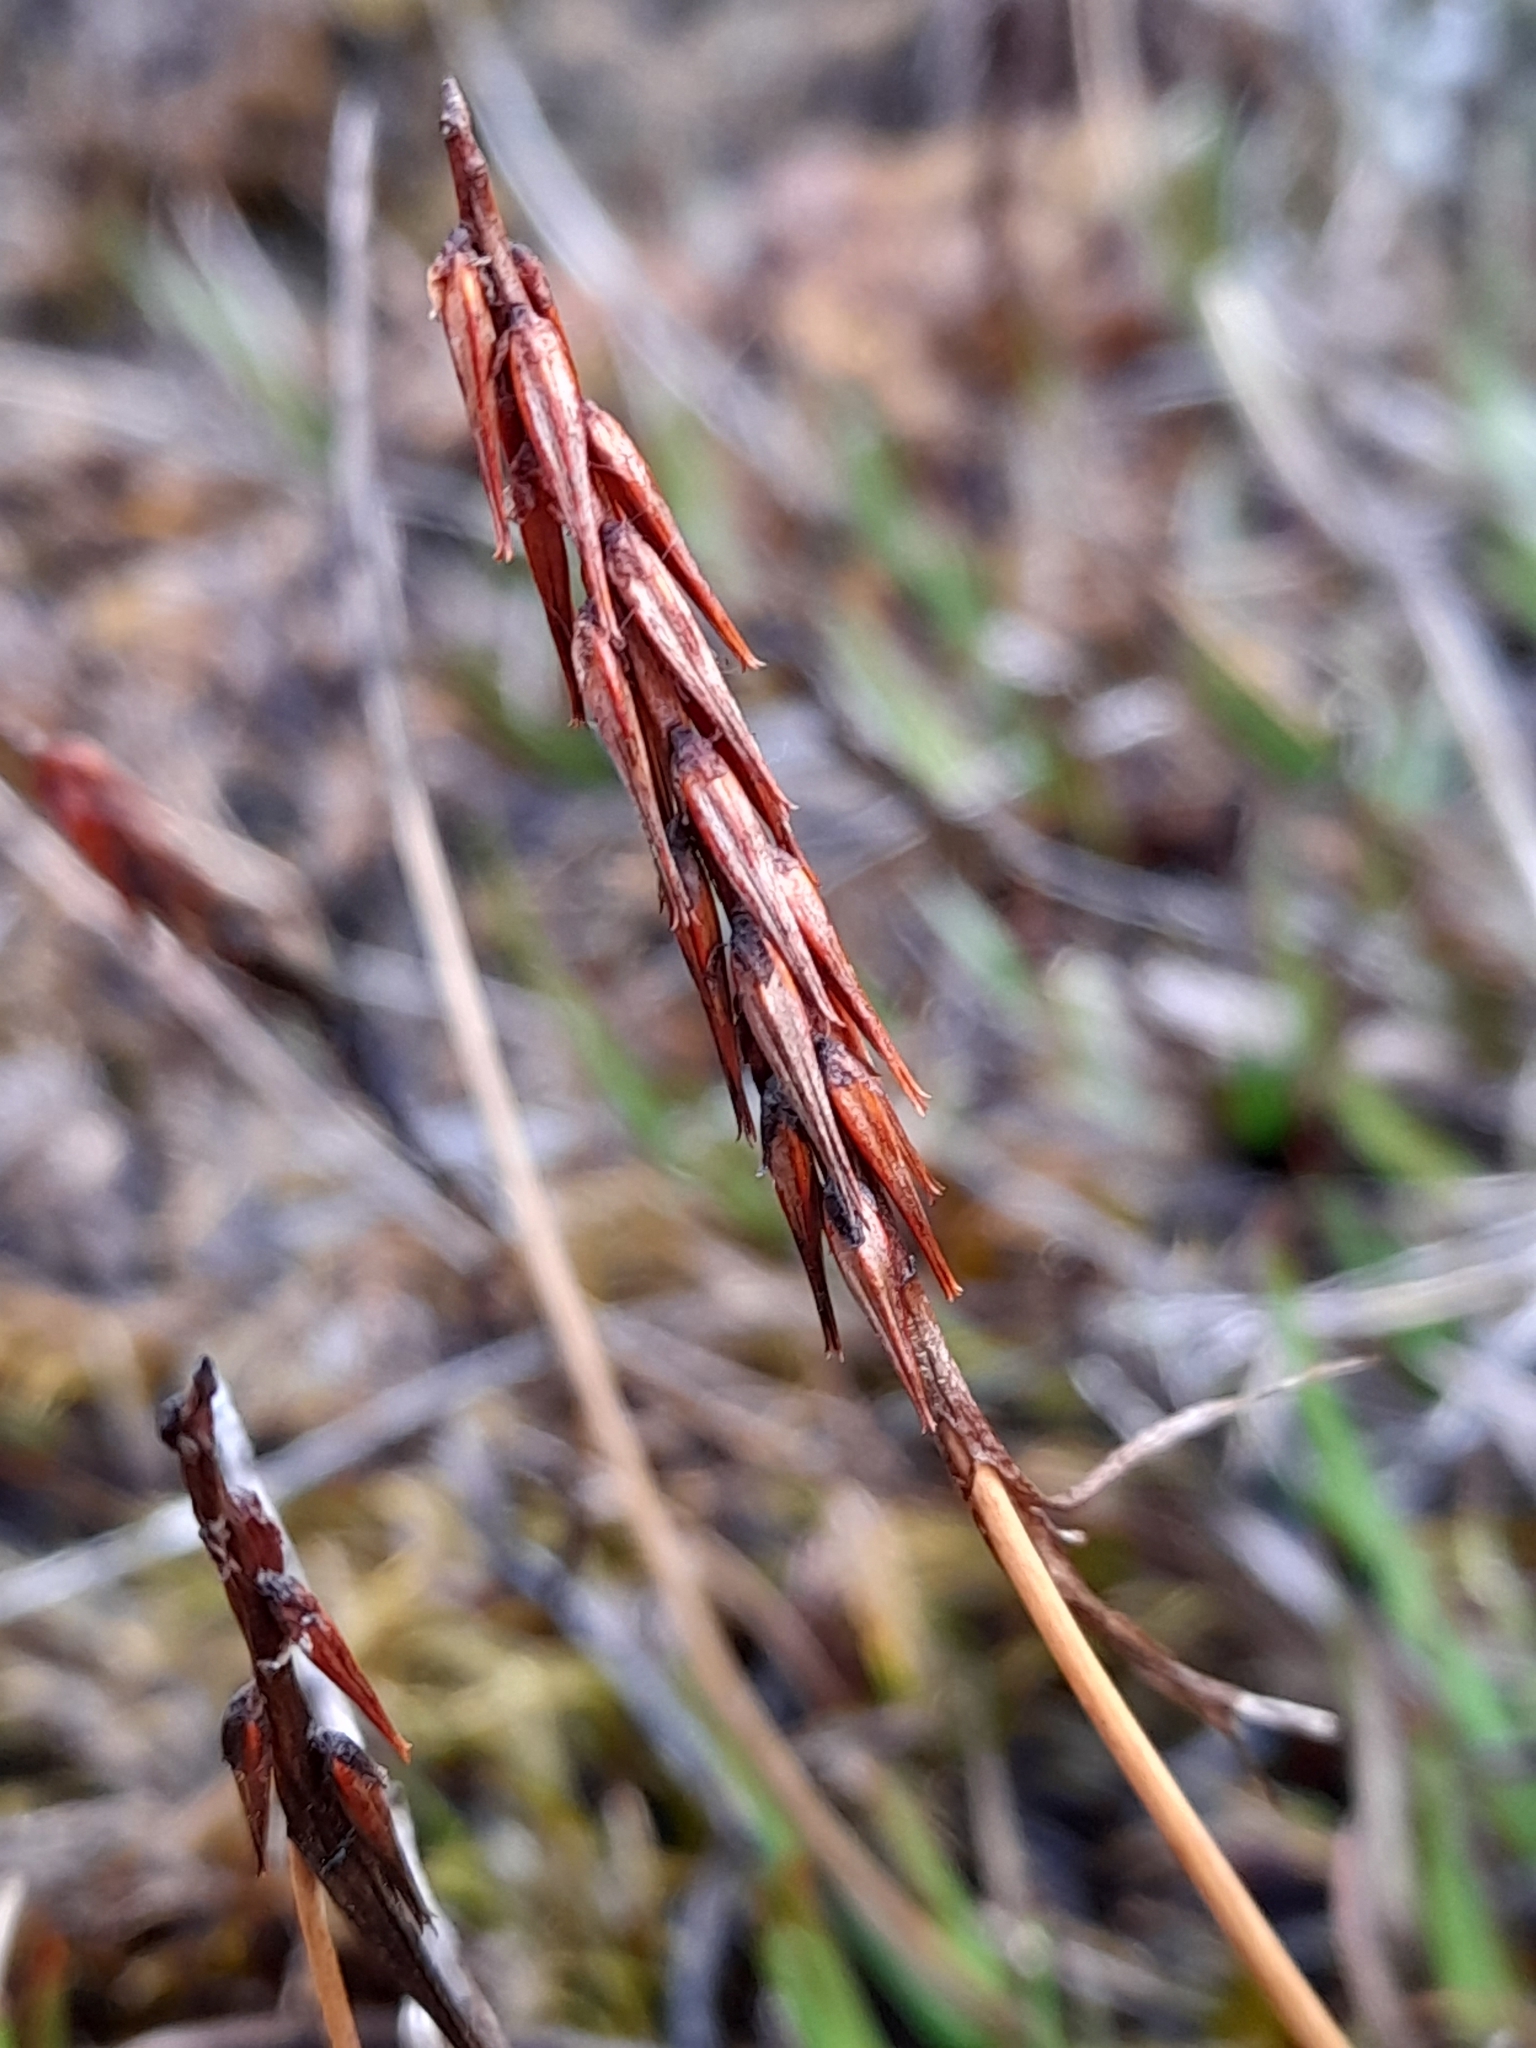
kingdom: Plantae
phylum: Tracheophyta
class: Liliopsida
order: Alismatales
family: Juncaginaceae
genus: Tetroncium
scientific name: Tetroncium magellanicum
